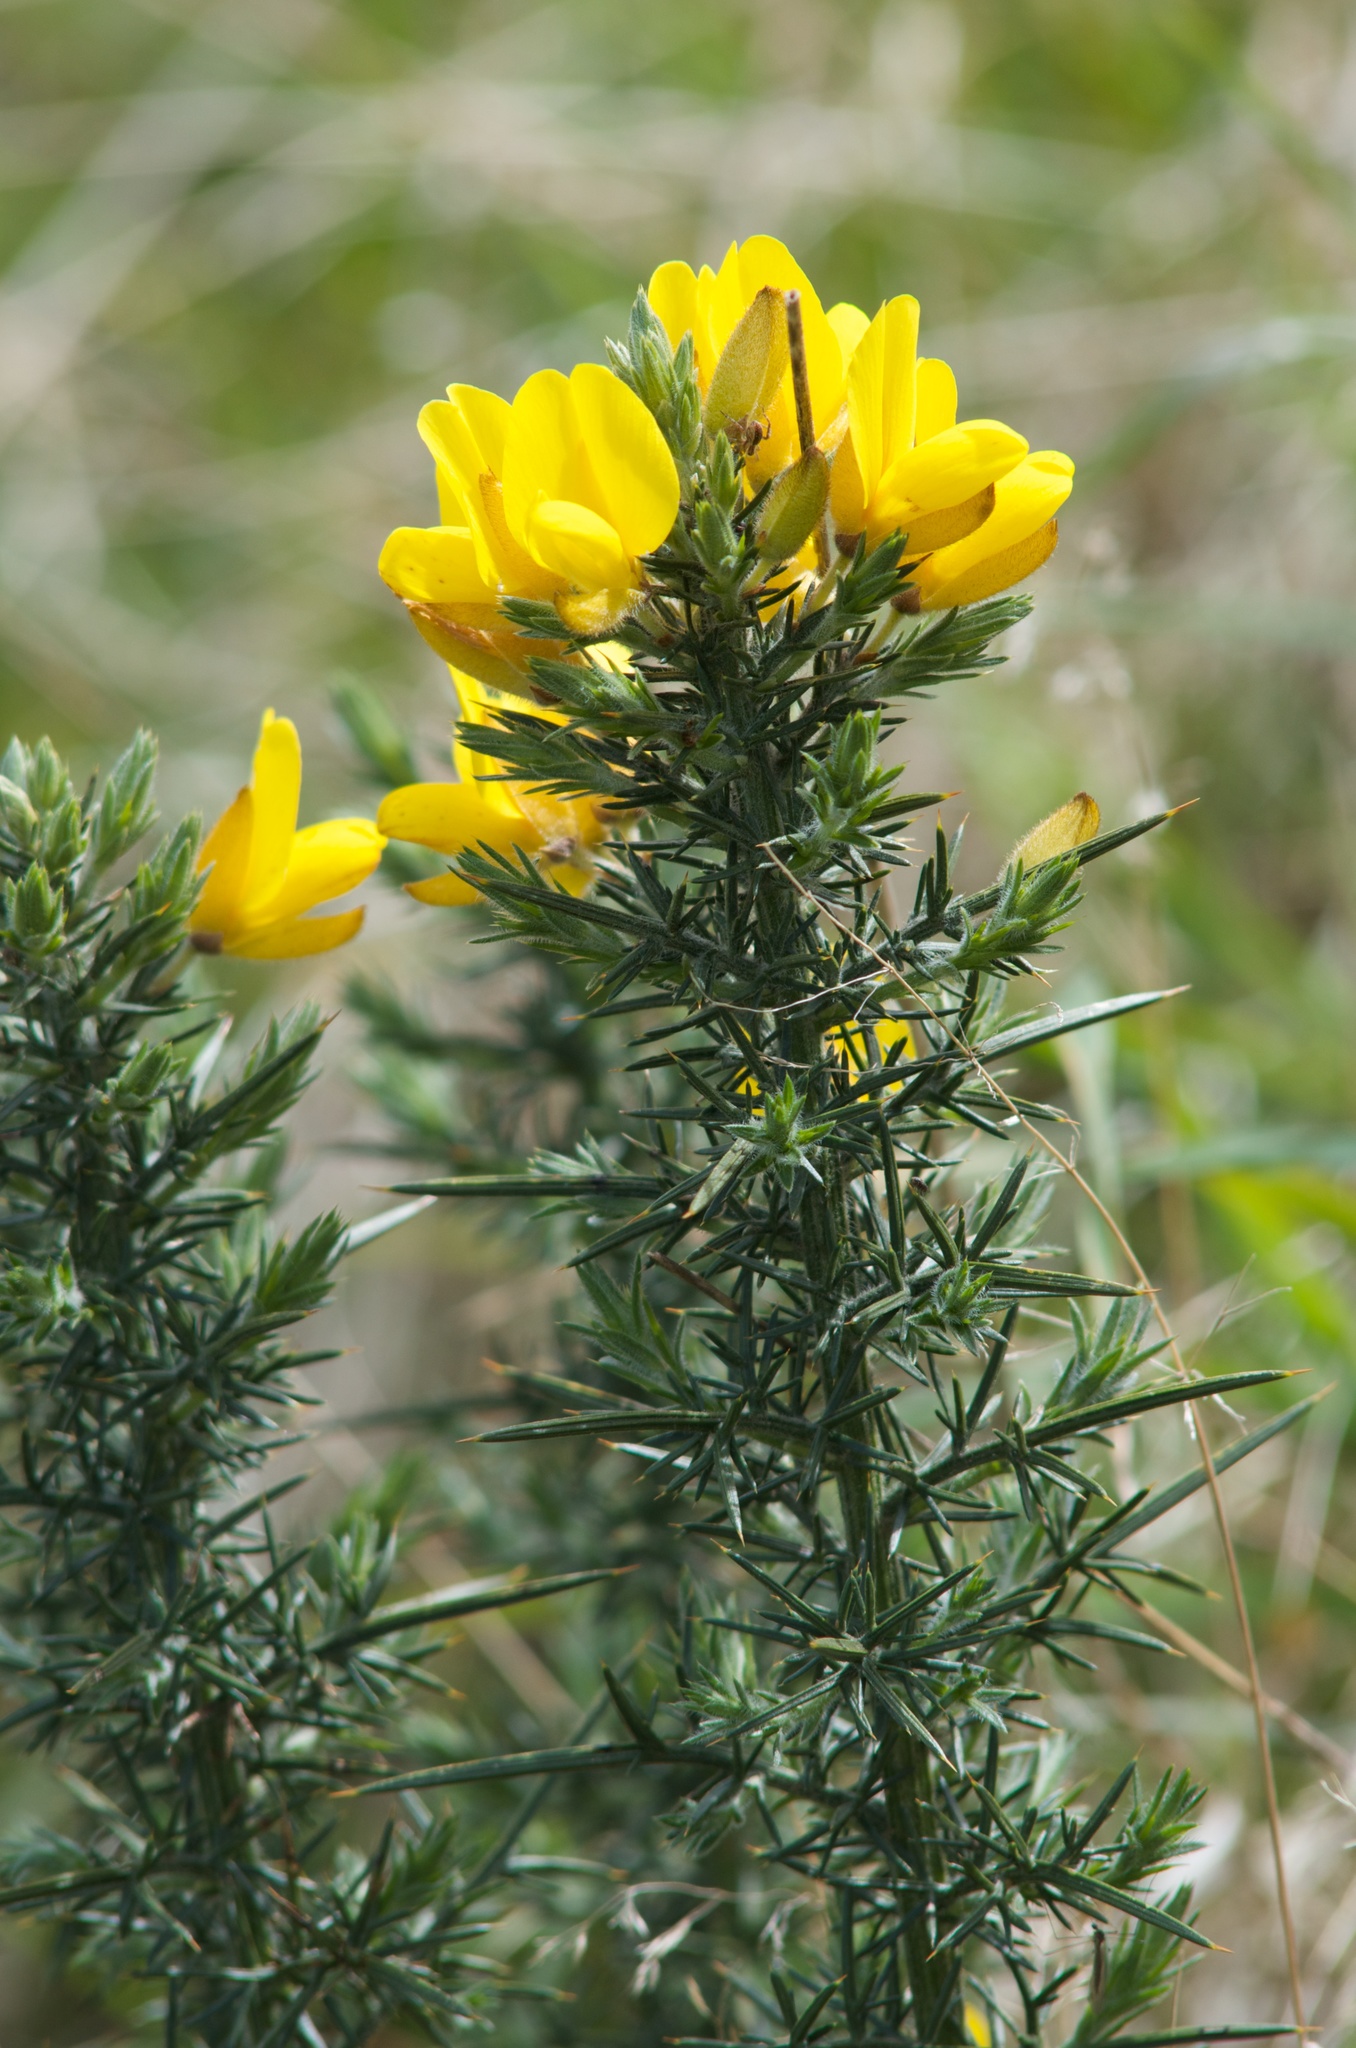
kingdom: Plantae
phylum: Tracheophyta
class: Magnoliopsida
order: Fabales
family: Fabaceae
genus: Ulex
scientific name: Ulex europaeus
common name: Common gorse
